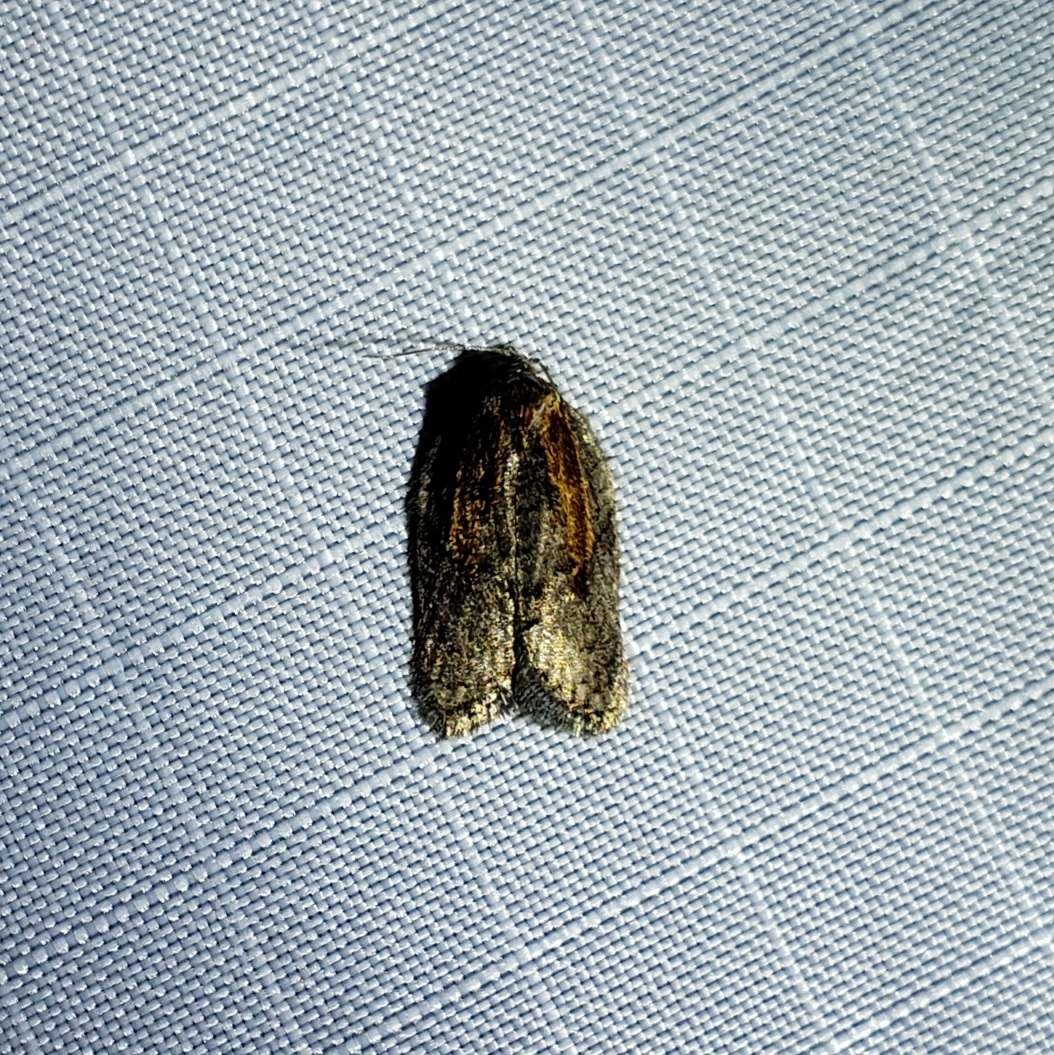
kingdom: Animalia
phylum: Arthropoda
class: Insecta
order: Lepidoptera
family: Tortricidae
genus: Acleris
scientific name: Acleris youngana
